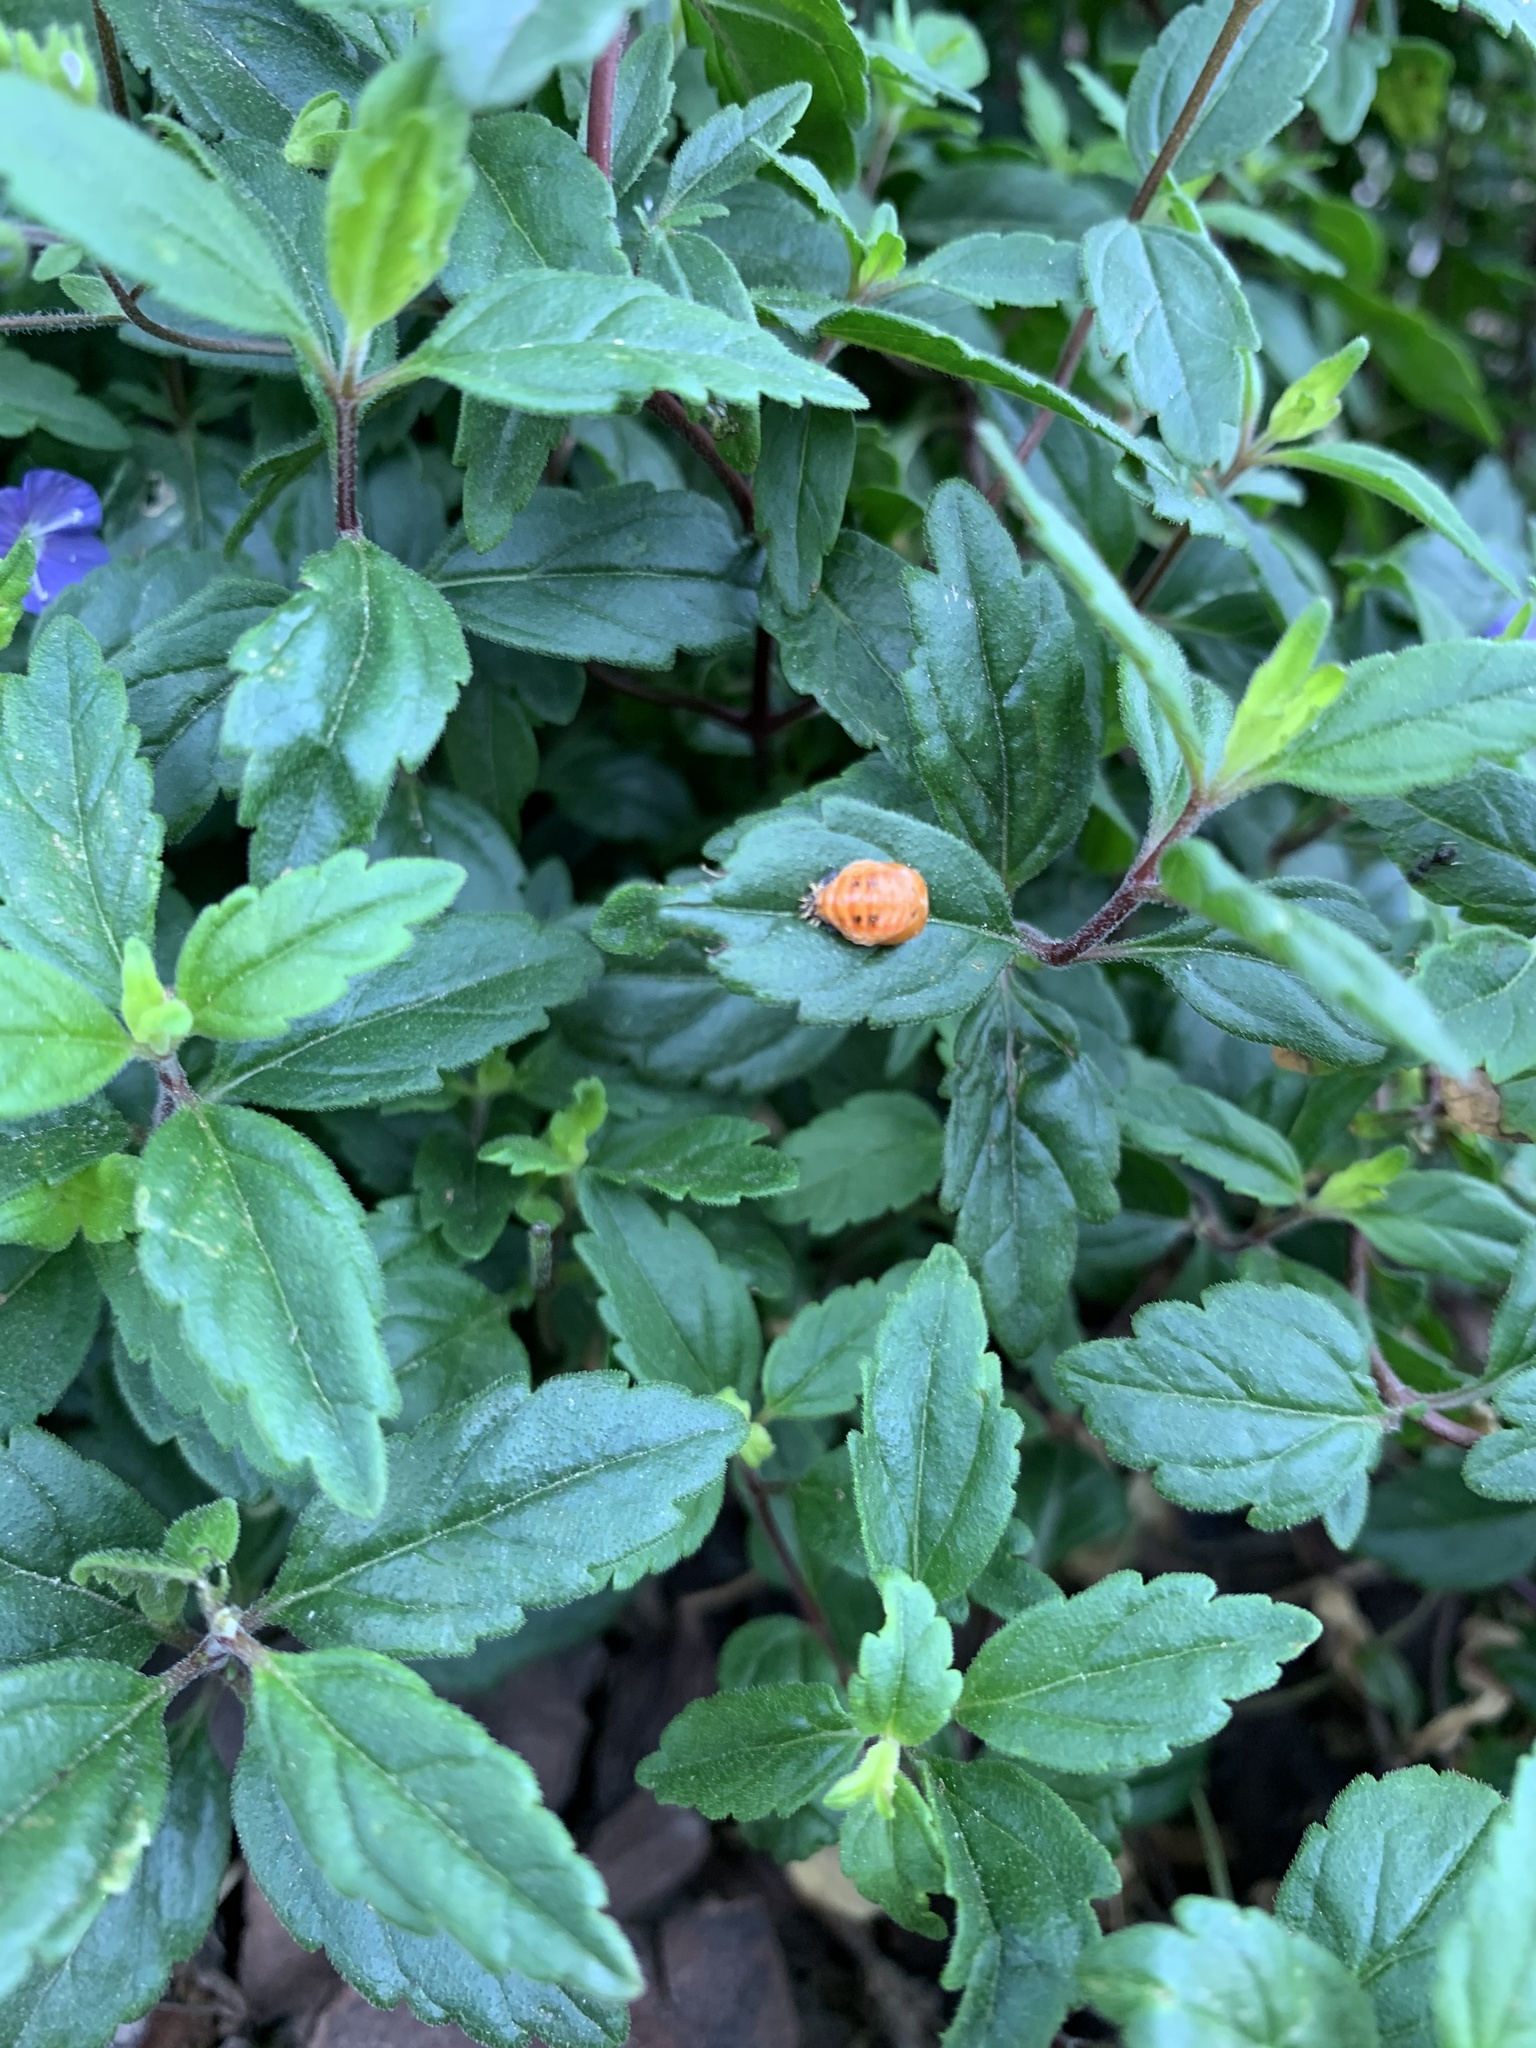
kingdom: Animalia
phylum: Arthropoda
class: Insecta
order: Coleoptera
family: Coccinellidae
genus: Harmonia
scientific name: Harmonia axyridis
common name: Harlequin ladybird
